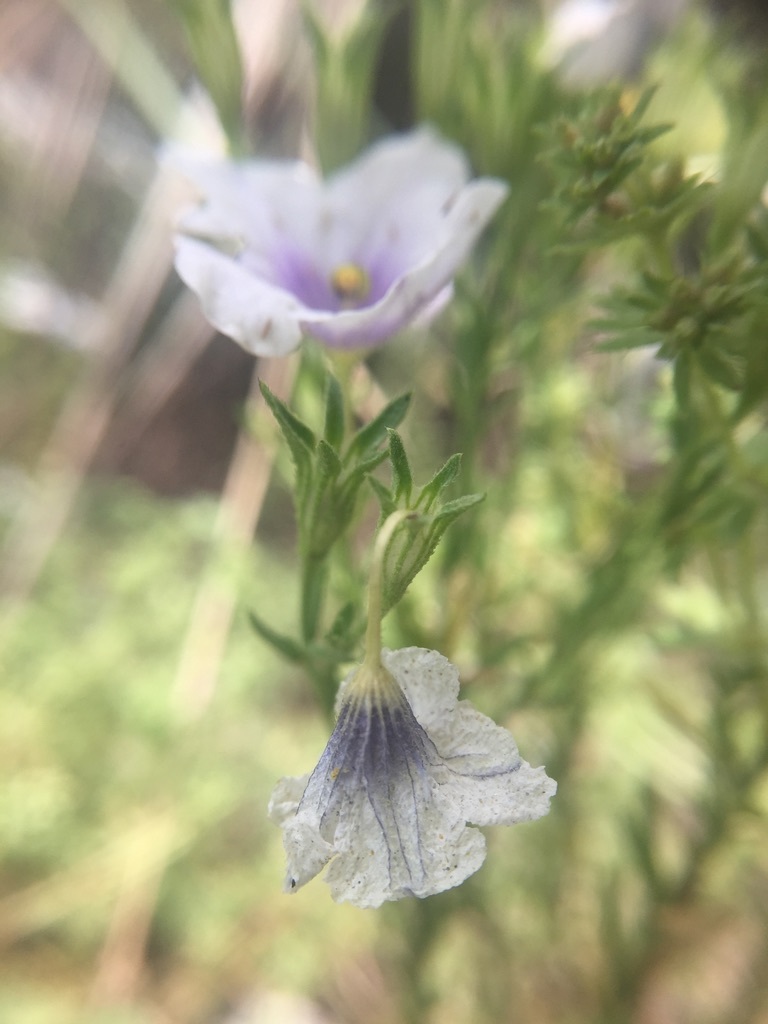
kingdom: Plantae
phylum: Tracheophyta
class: Magnoliopsida
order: Solanales
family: Solanaceae
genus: Nierembergia
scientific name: Nierembergia linariifolia
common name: Dwarf cupflower
